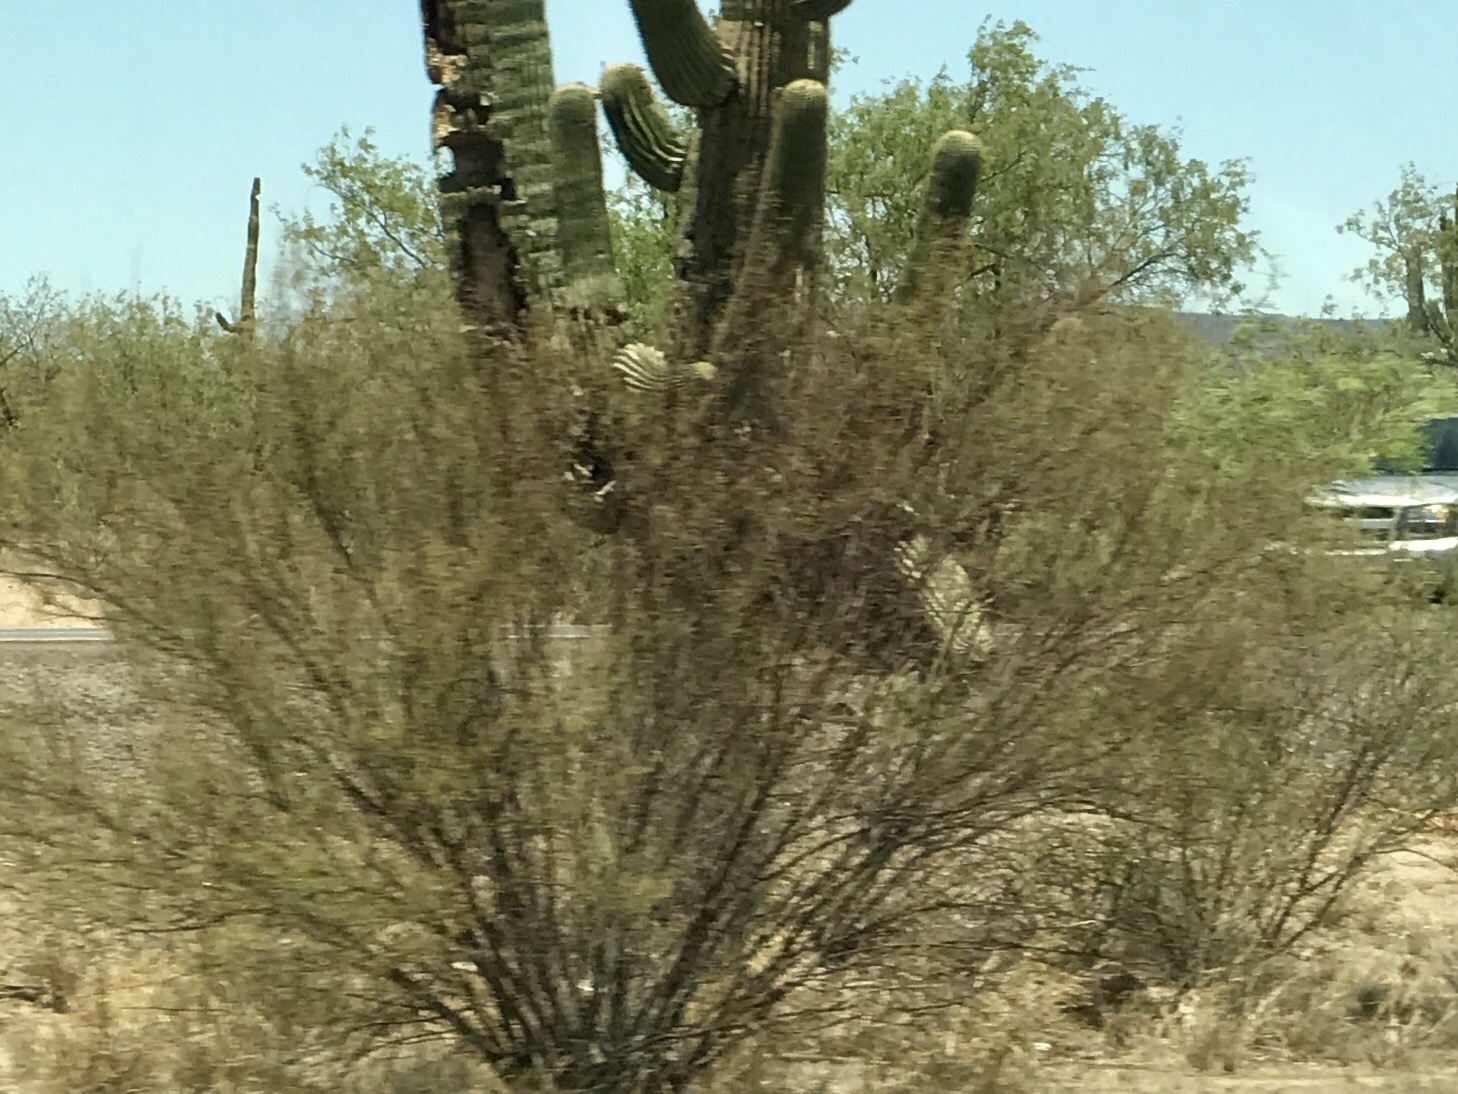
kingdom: Plantae
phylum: Tracheophyta
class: Magnoliopsida
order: Zygophyllales
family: Zygophyllaceae
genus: Larrea
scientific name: Larrea tridentata
